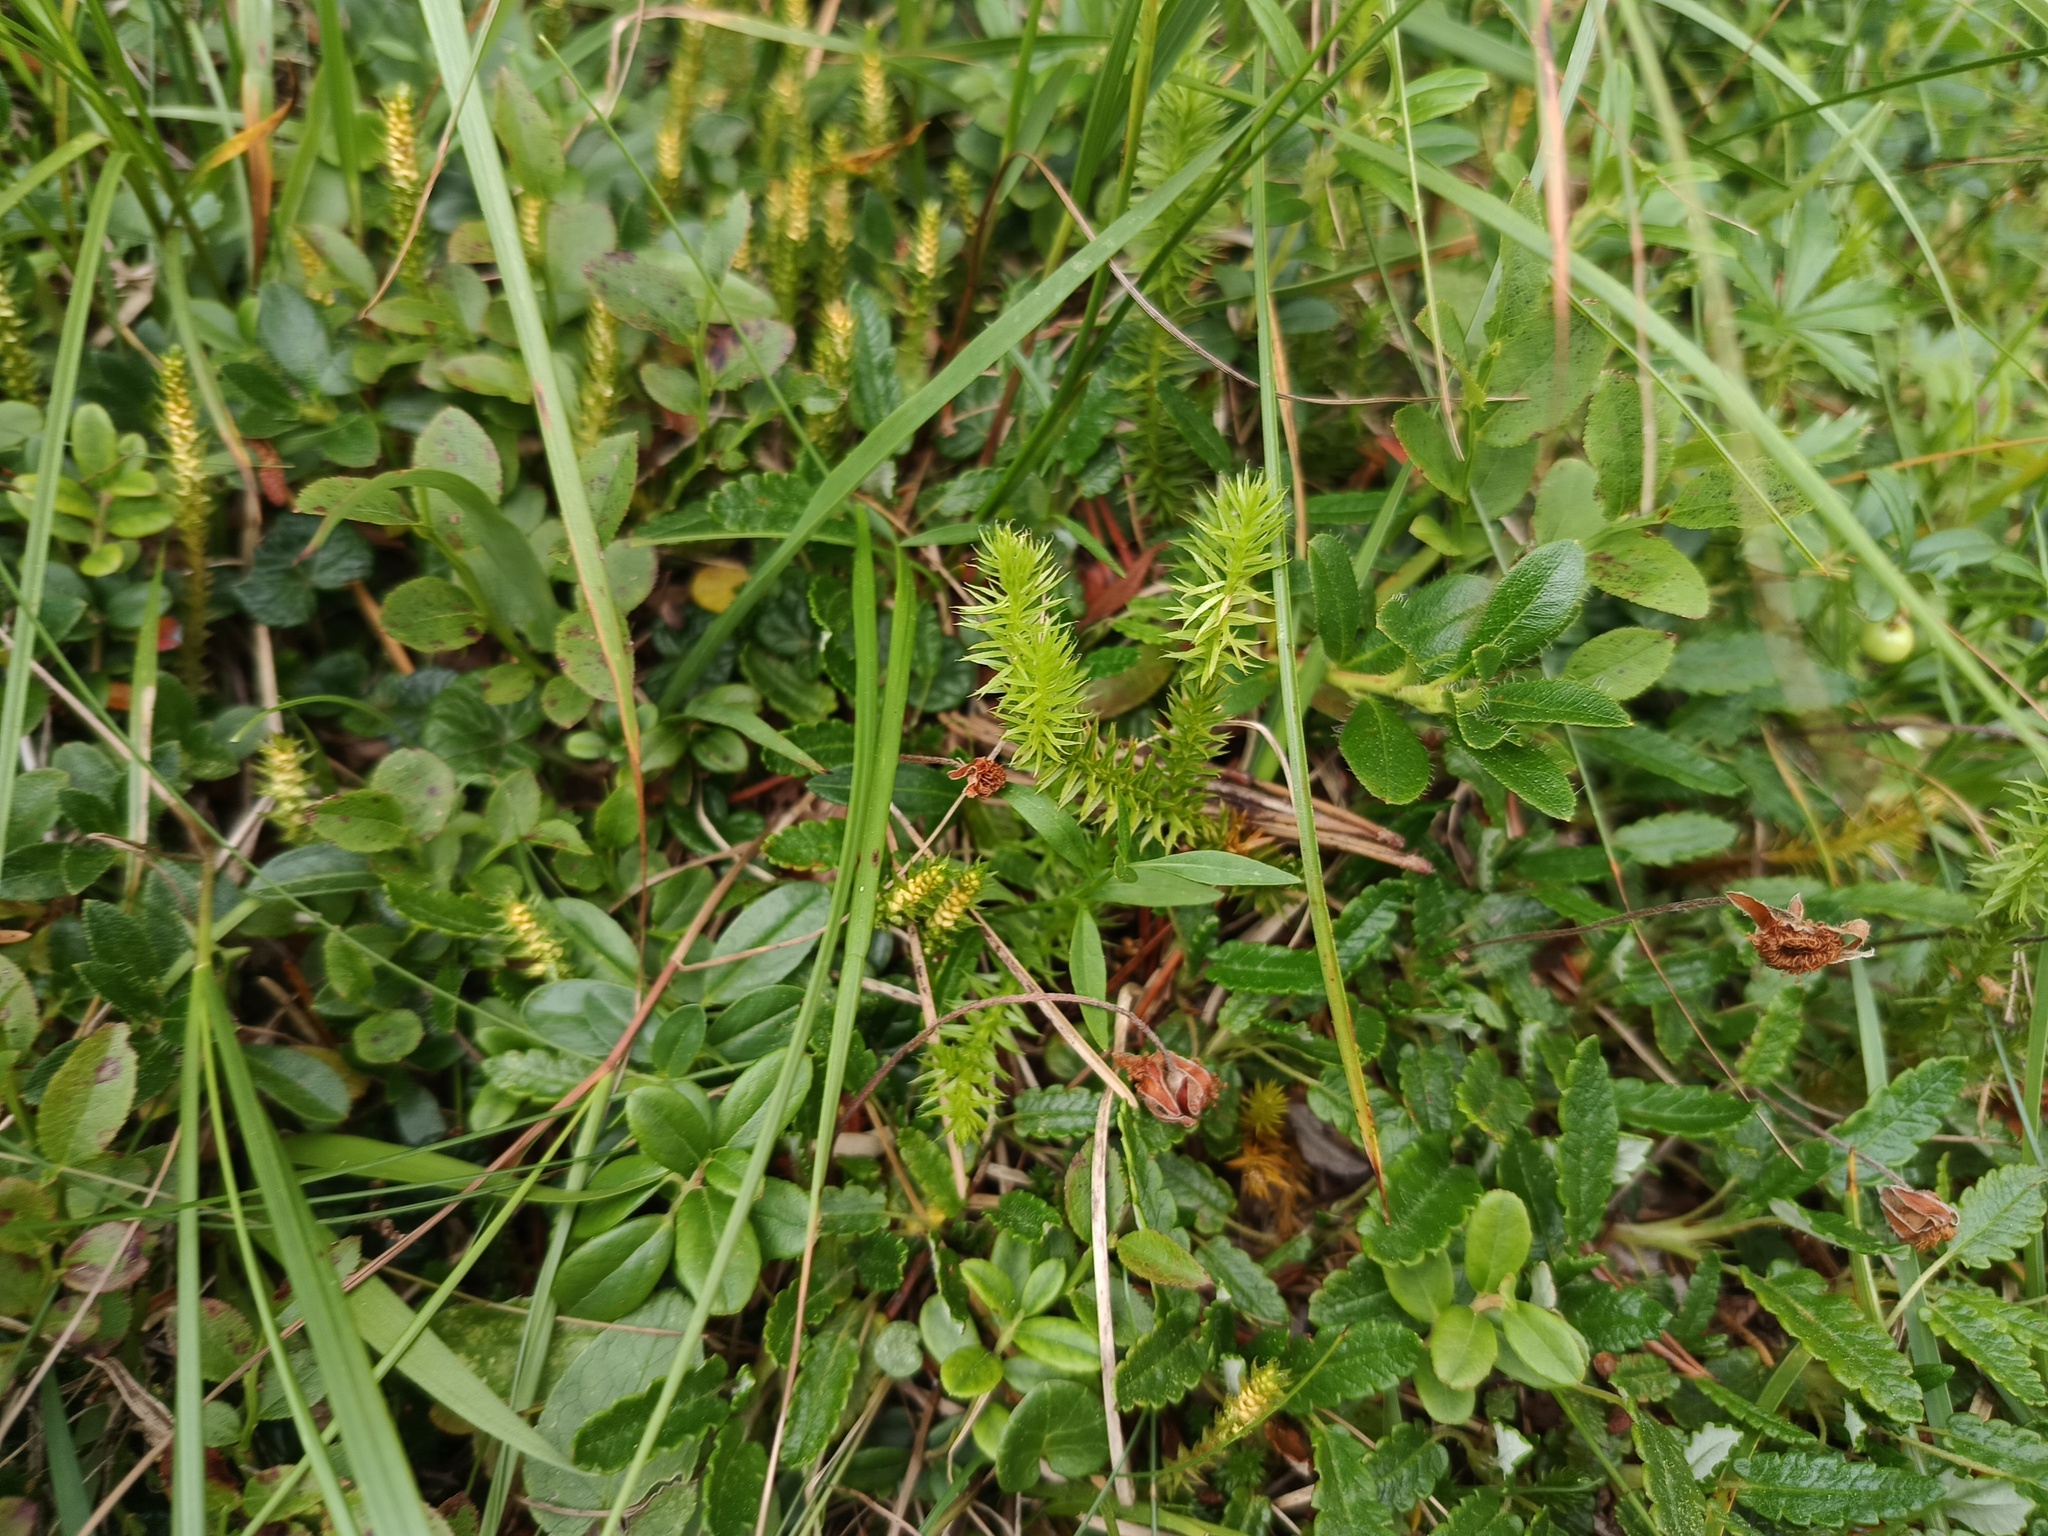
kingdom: Plantae
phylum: Tracheophyta
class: Lycopodiopsida
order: Lycopodiales
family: Lycopodiaceae
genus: Huperzia
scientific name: Huperzia selago
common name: Northern firmoss
